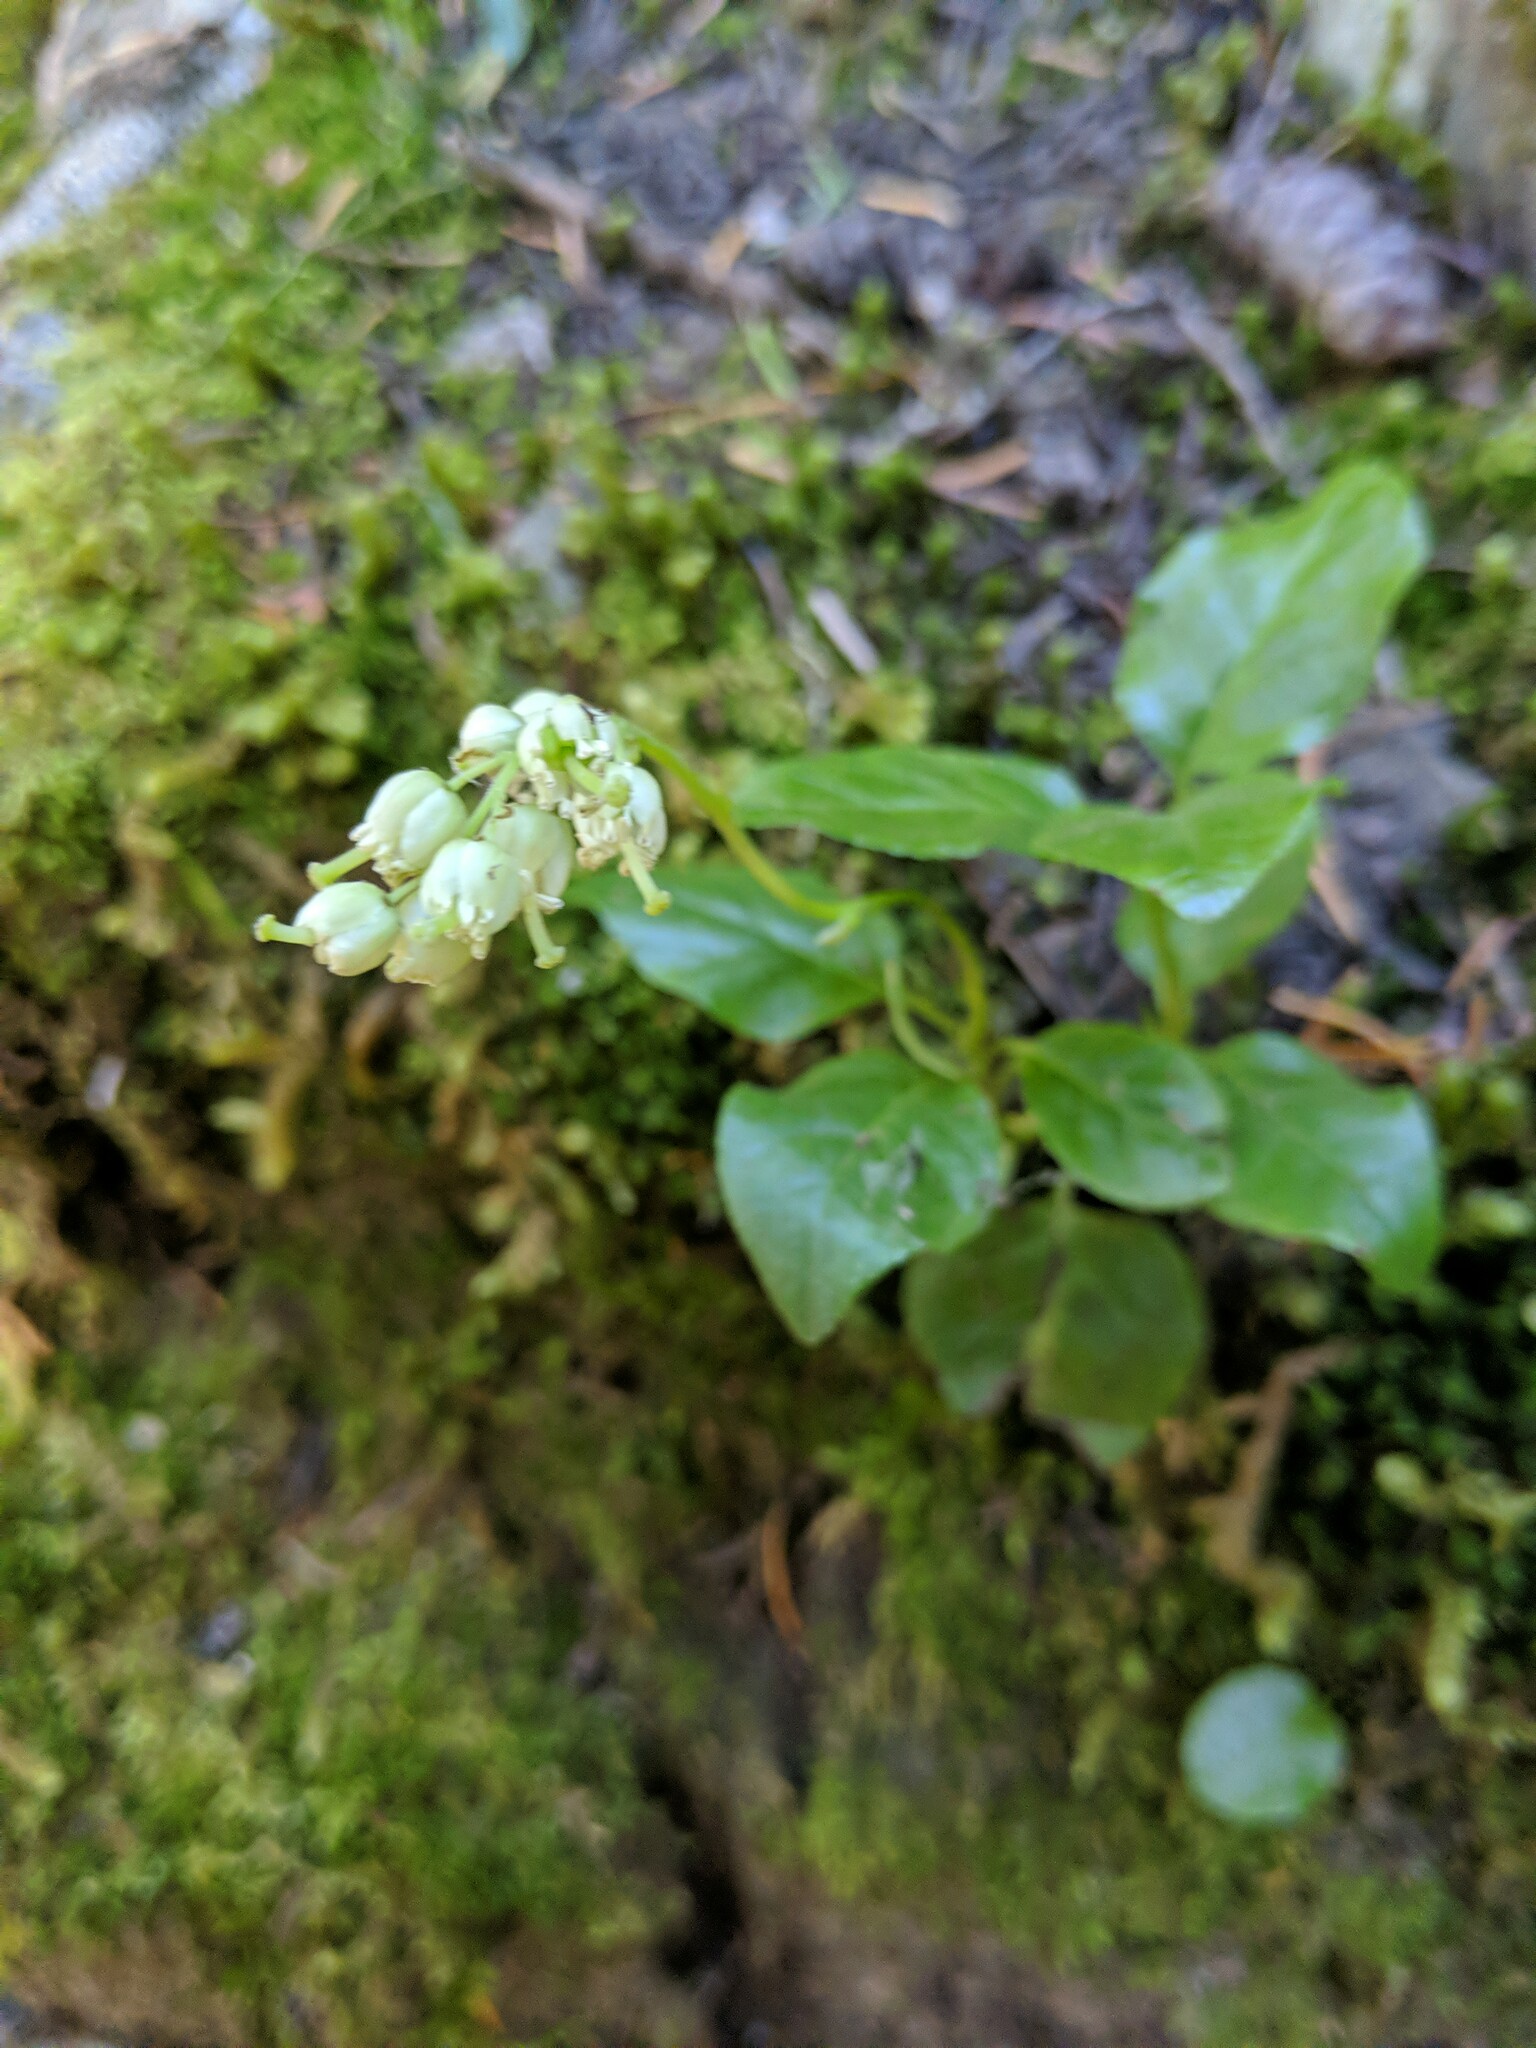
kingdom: Plantae
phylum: Tracheophyta
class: Magnoliopsida
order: Ericales
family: Ericaceae
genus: Orthilia
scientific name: Orthilia secunda
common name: One-sided orthilia
